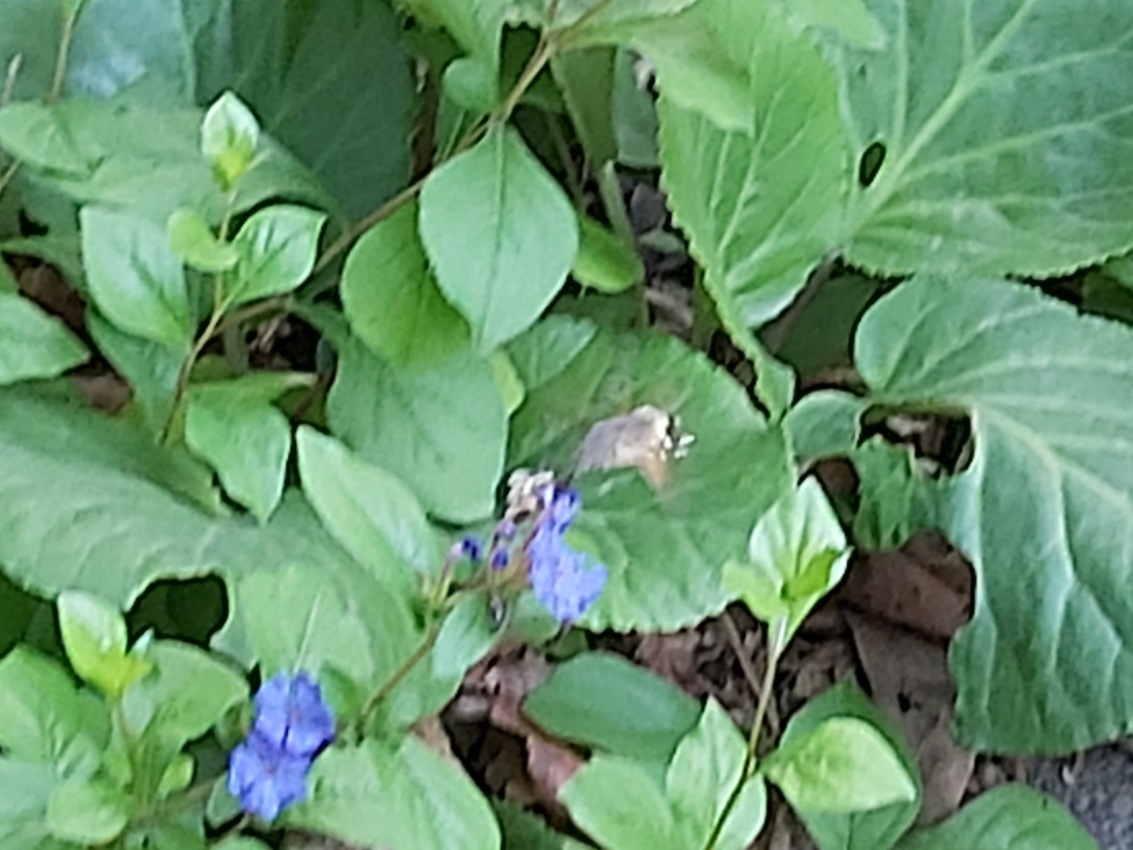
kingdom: Animalia
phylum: Arthropoda
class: Insecta
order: Lepidoptera
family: Sphingidae
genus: Macroglossum
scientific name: Macroglossum stellatarum
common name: Humming-bird hawk-moth
